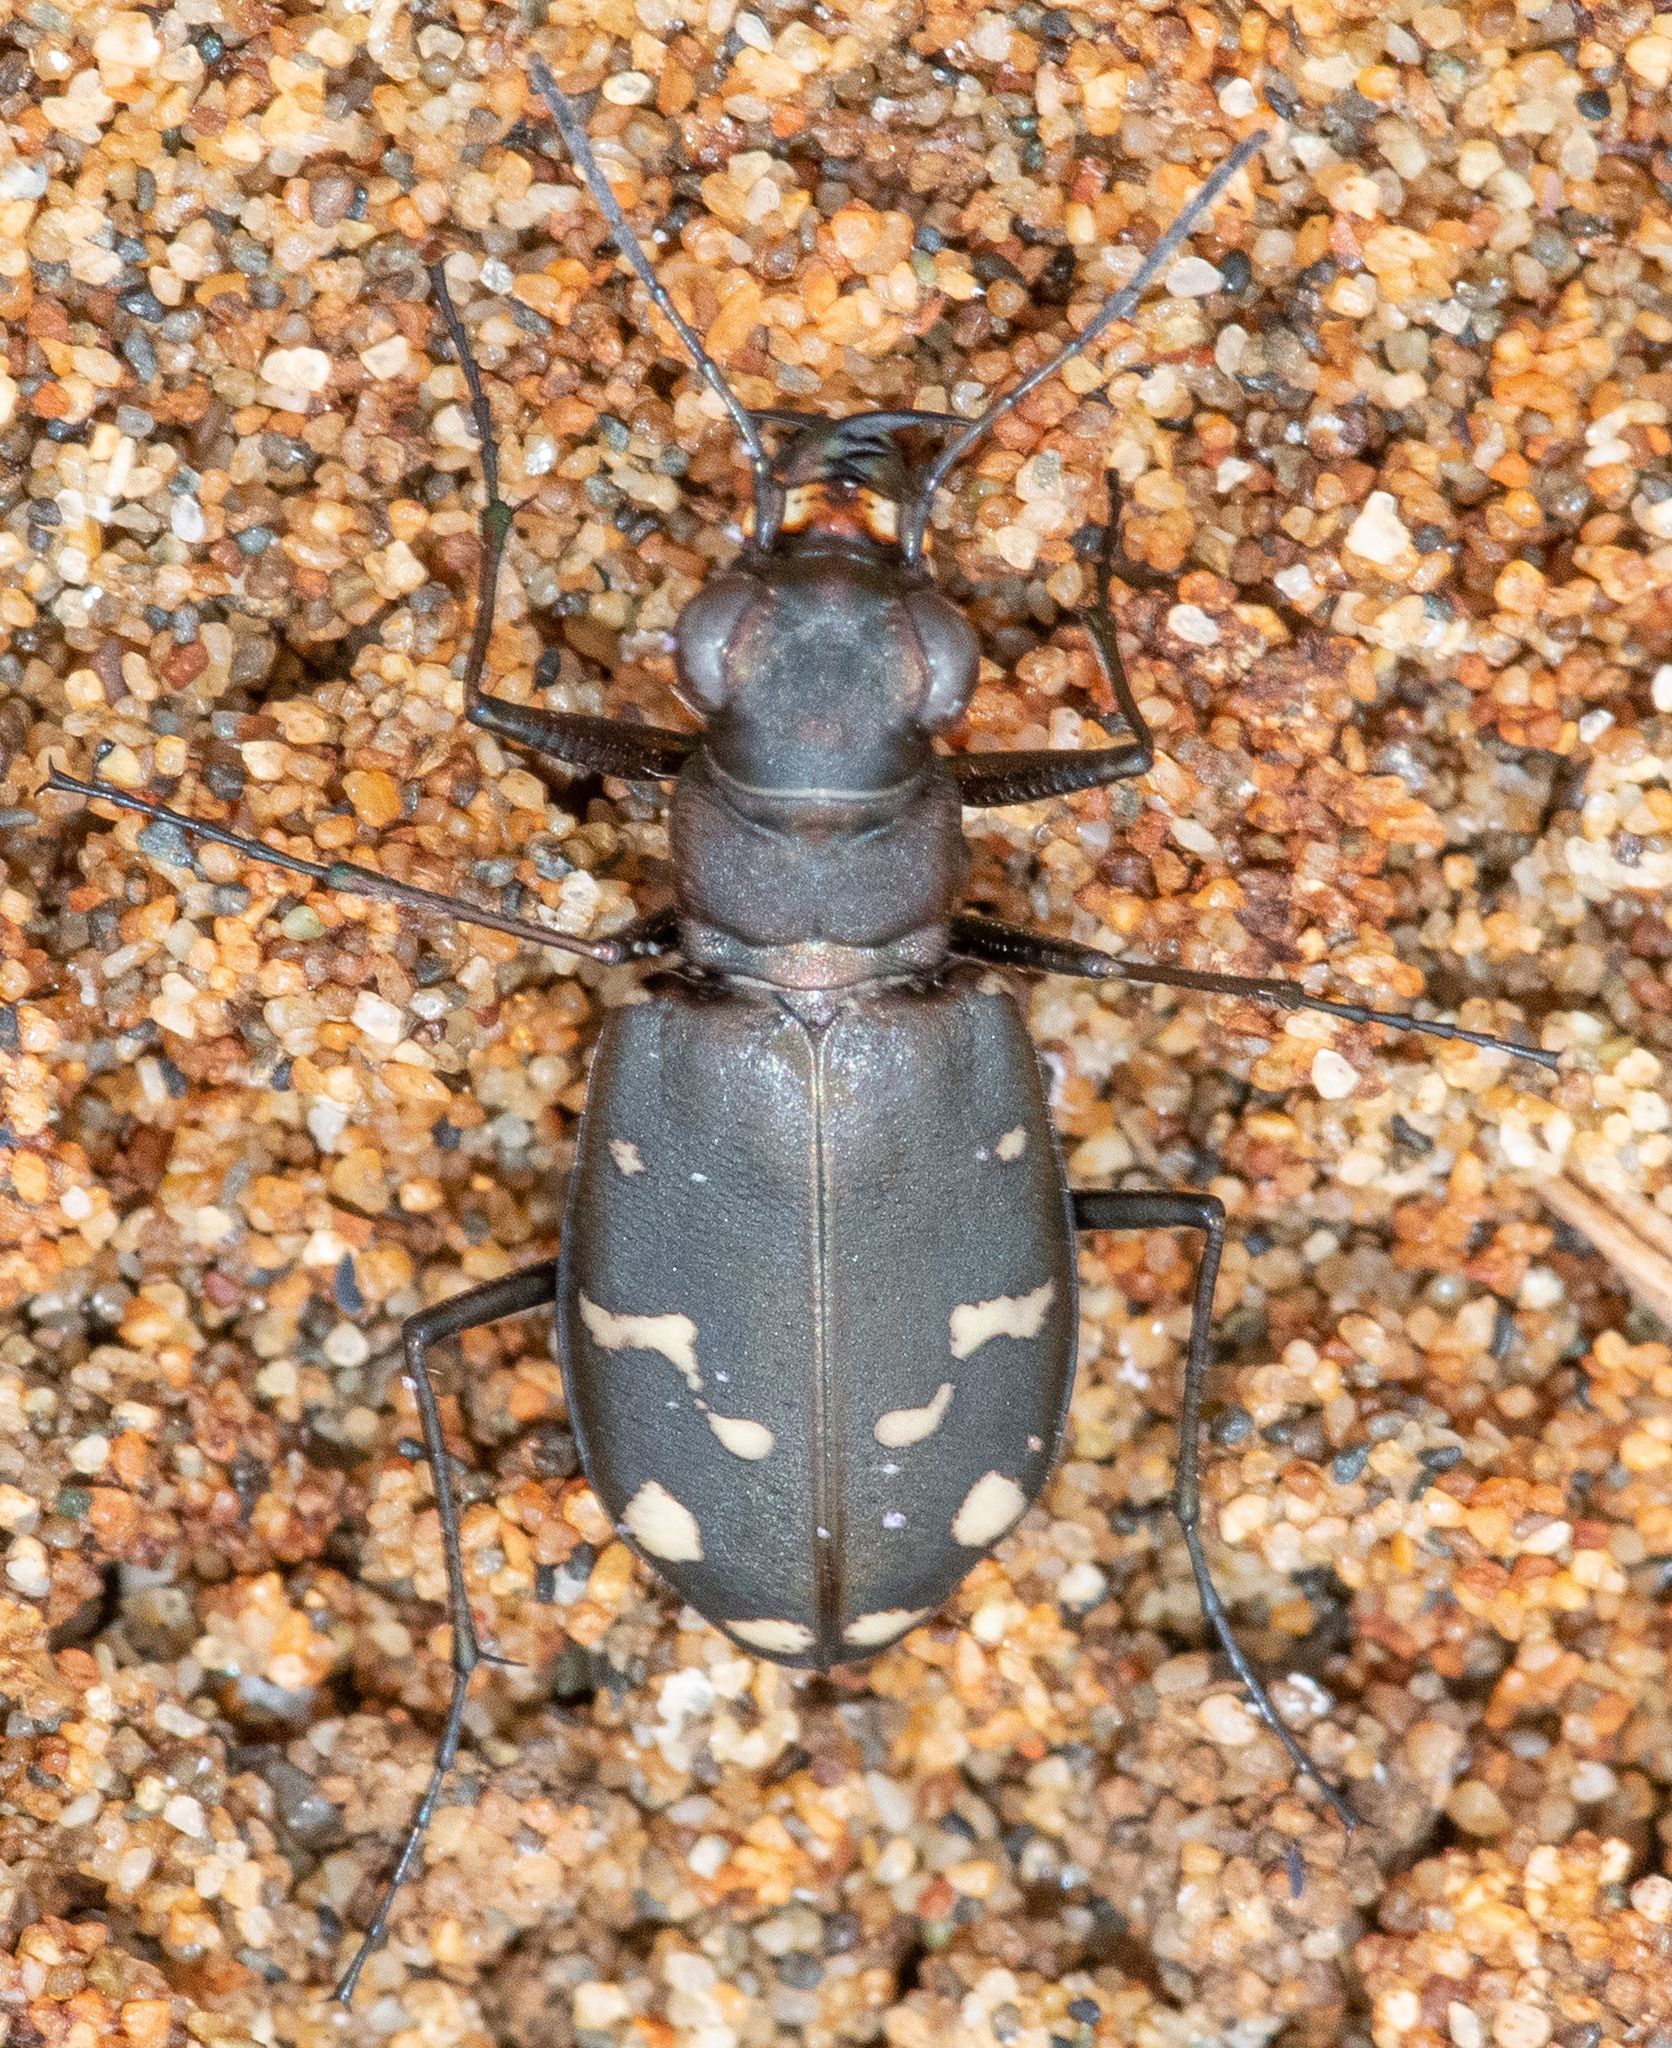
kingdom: Animalia
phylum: Arthropoda
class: Insecta
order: Coleoptera
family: Carabidae
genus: Cicindela
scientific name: Cicindela oregona
